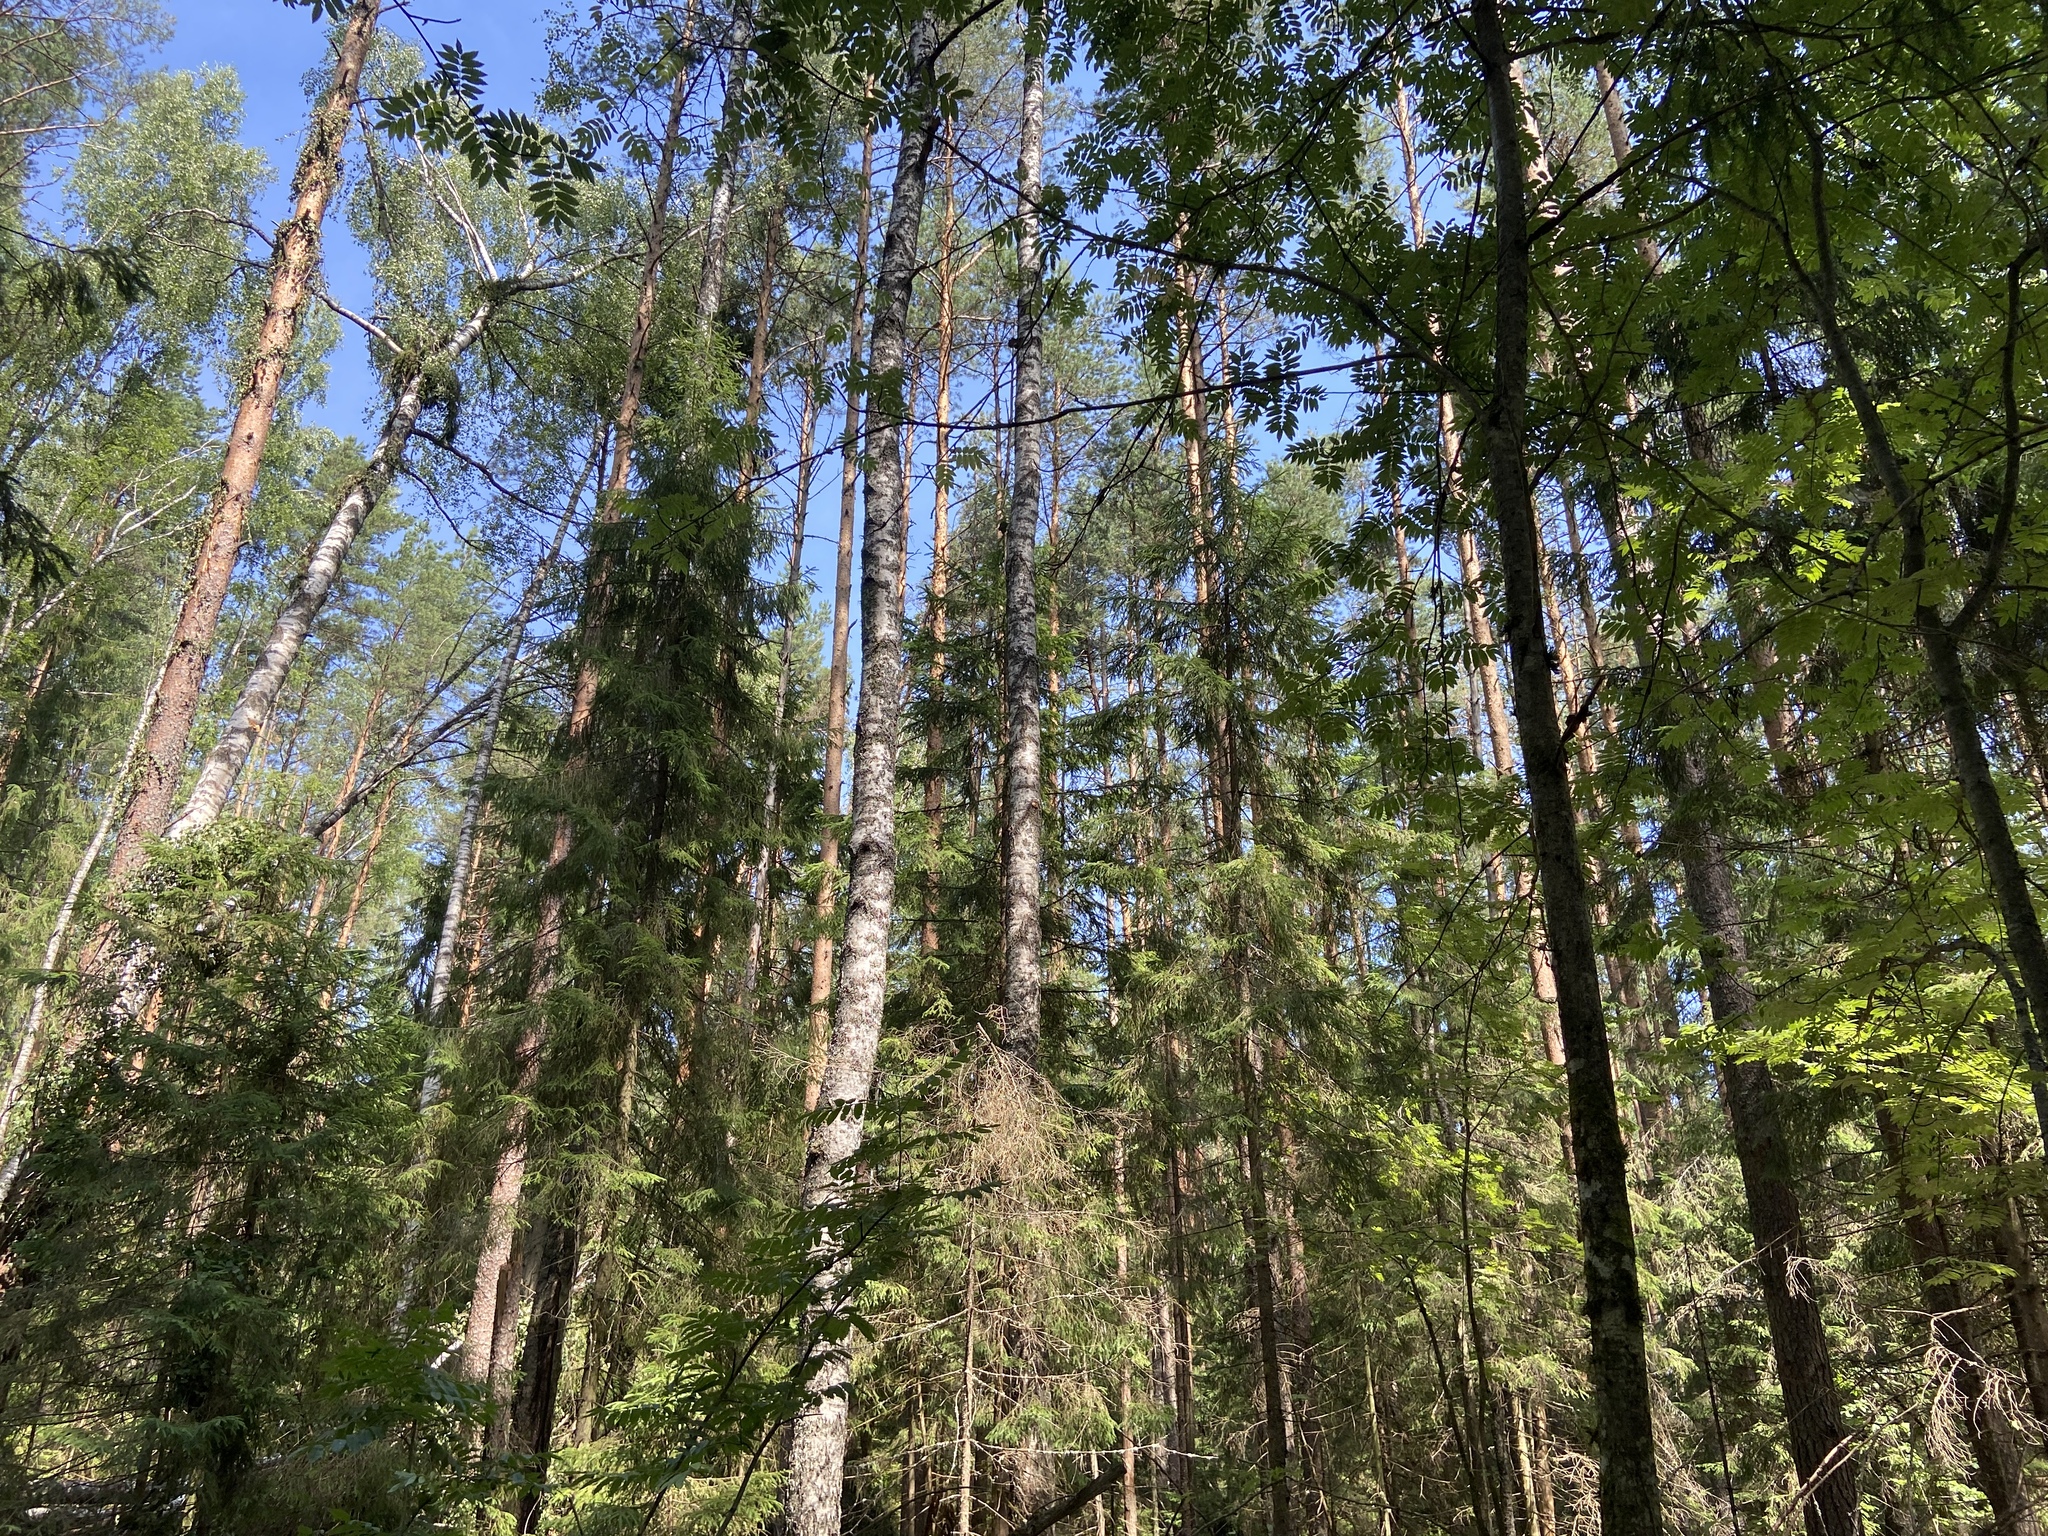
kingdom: Plantae
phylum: Tracheophyta
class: Pinopsida
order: Pinales
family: Pinaceae
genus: Picea
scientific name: Picea abies
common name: Norway spruce
